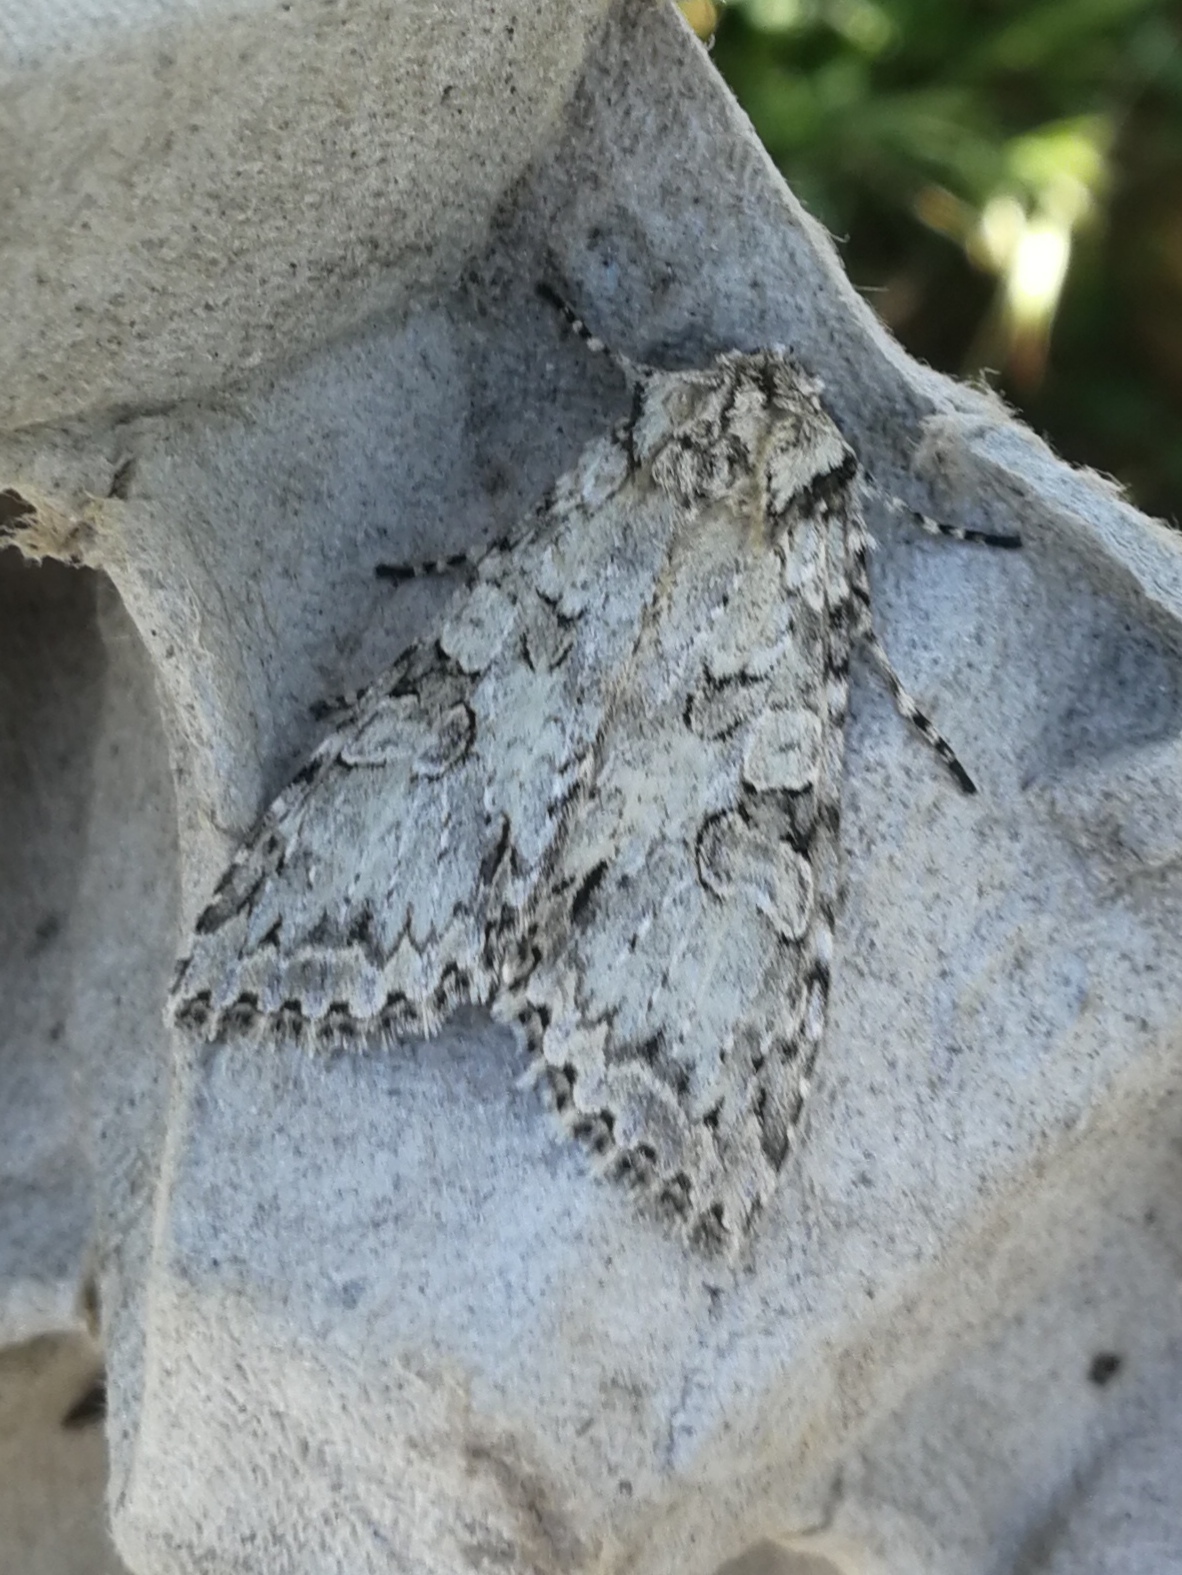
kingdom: Animalia
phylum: Arthropoda
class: Insecta
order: Lepidoptera
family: Noctuidae
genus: Polia
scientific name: Polia nebulosa
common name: Grey arches
